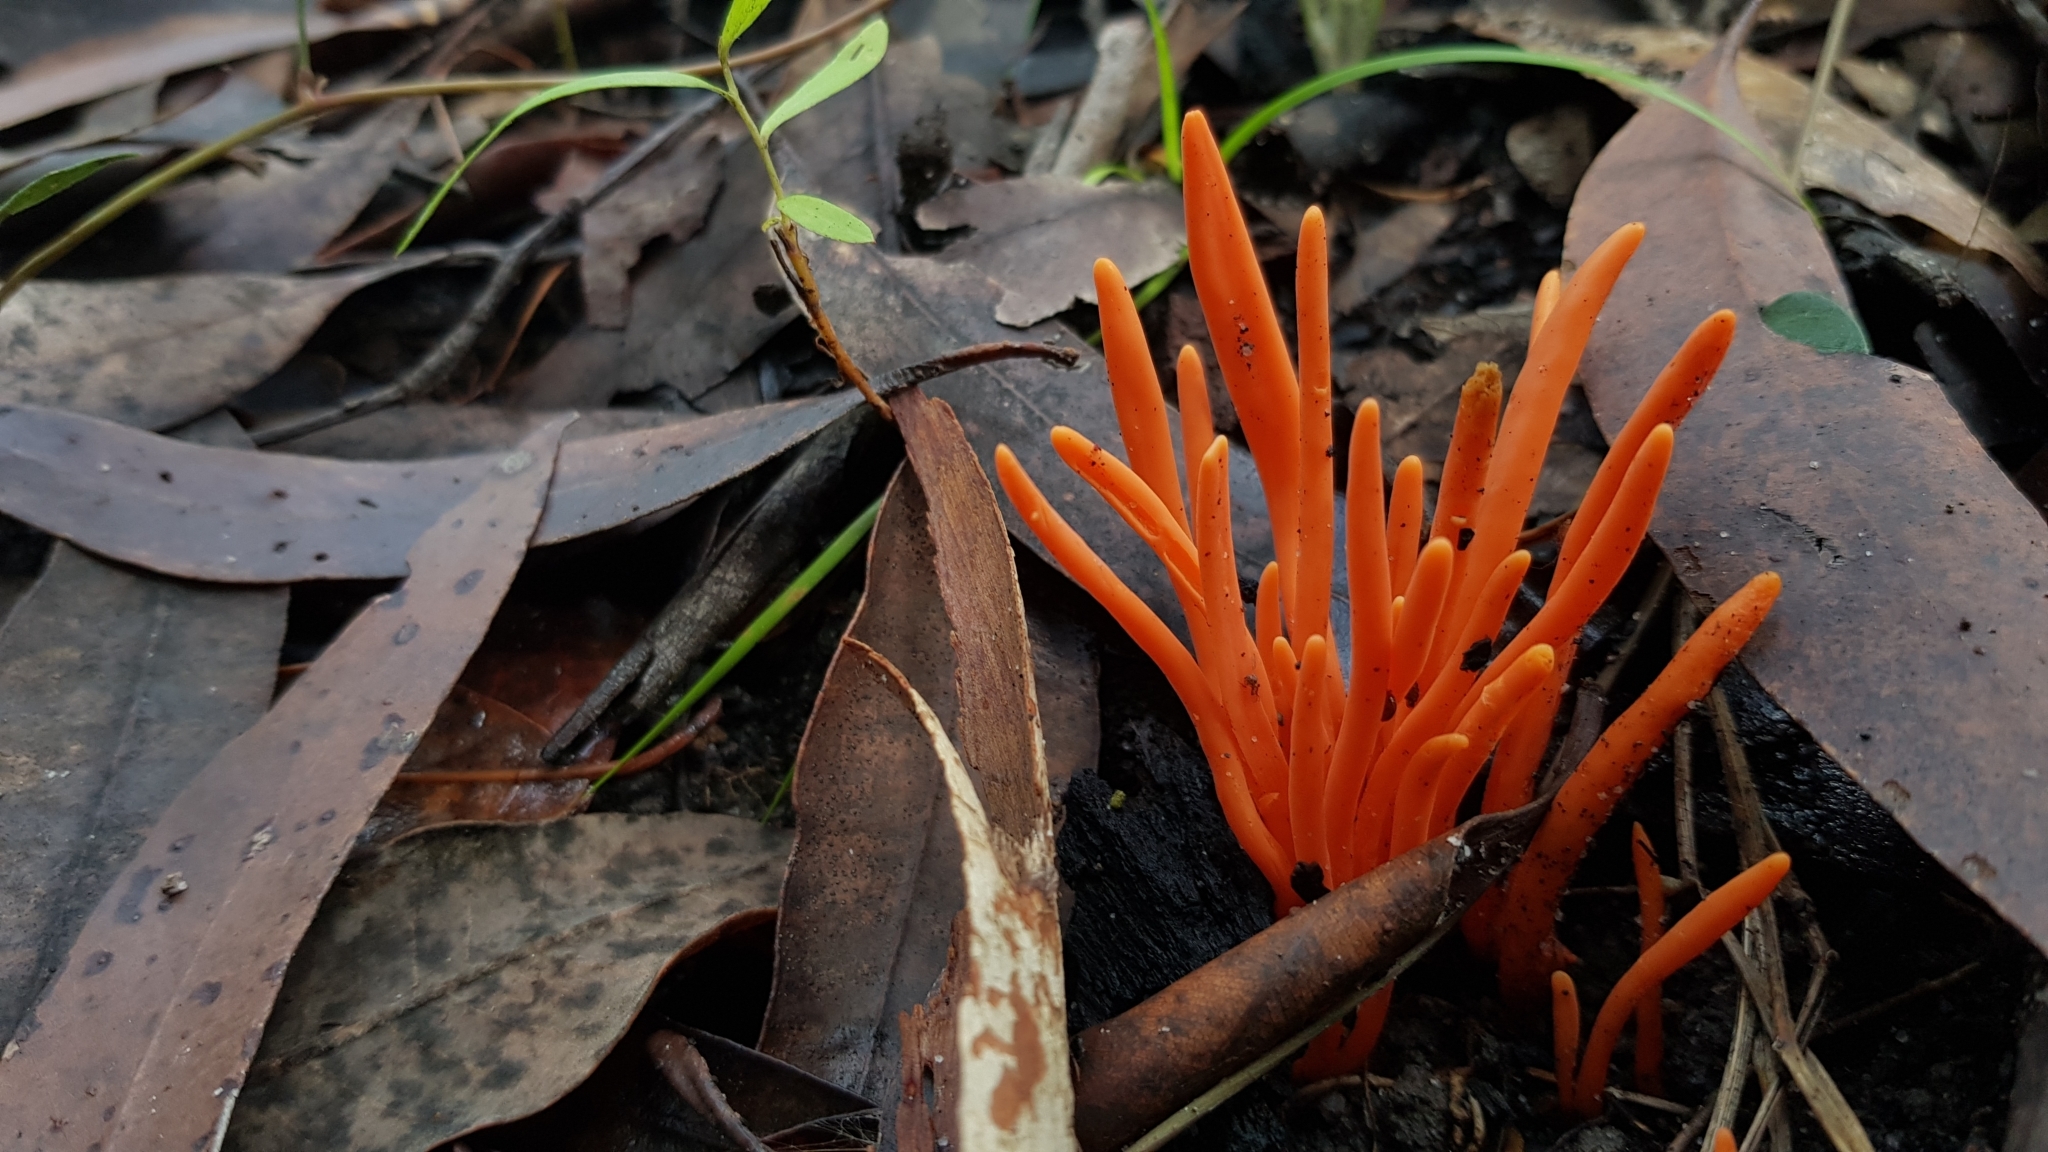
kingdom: Fungi
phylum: Basidiomycota
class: Agaricomycetes
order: Agaricales
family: Clavariaceae
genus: Clavulinopsis
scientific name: Clavulinopsis sulcata
